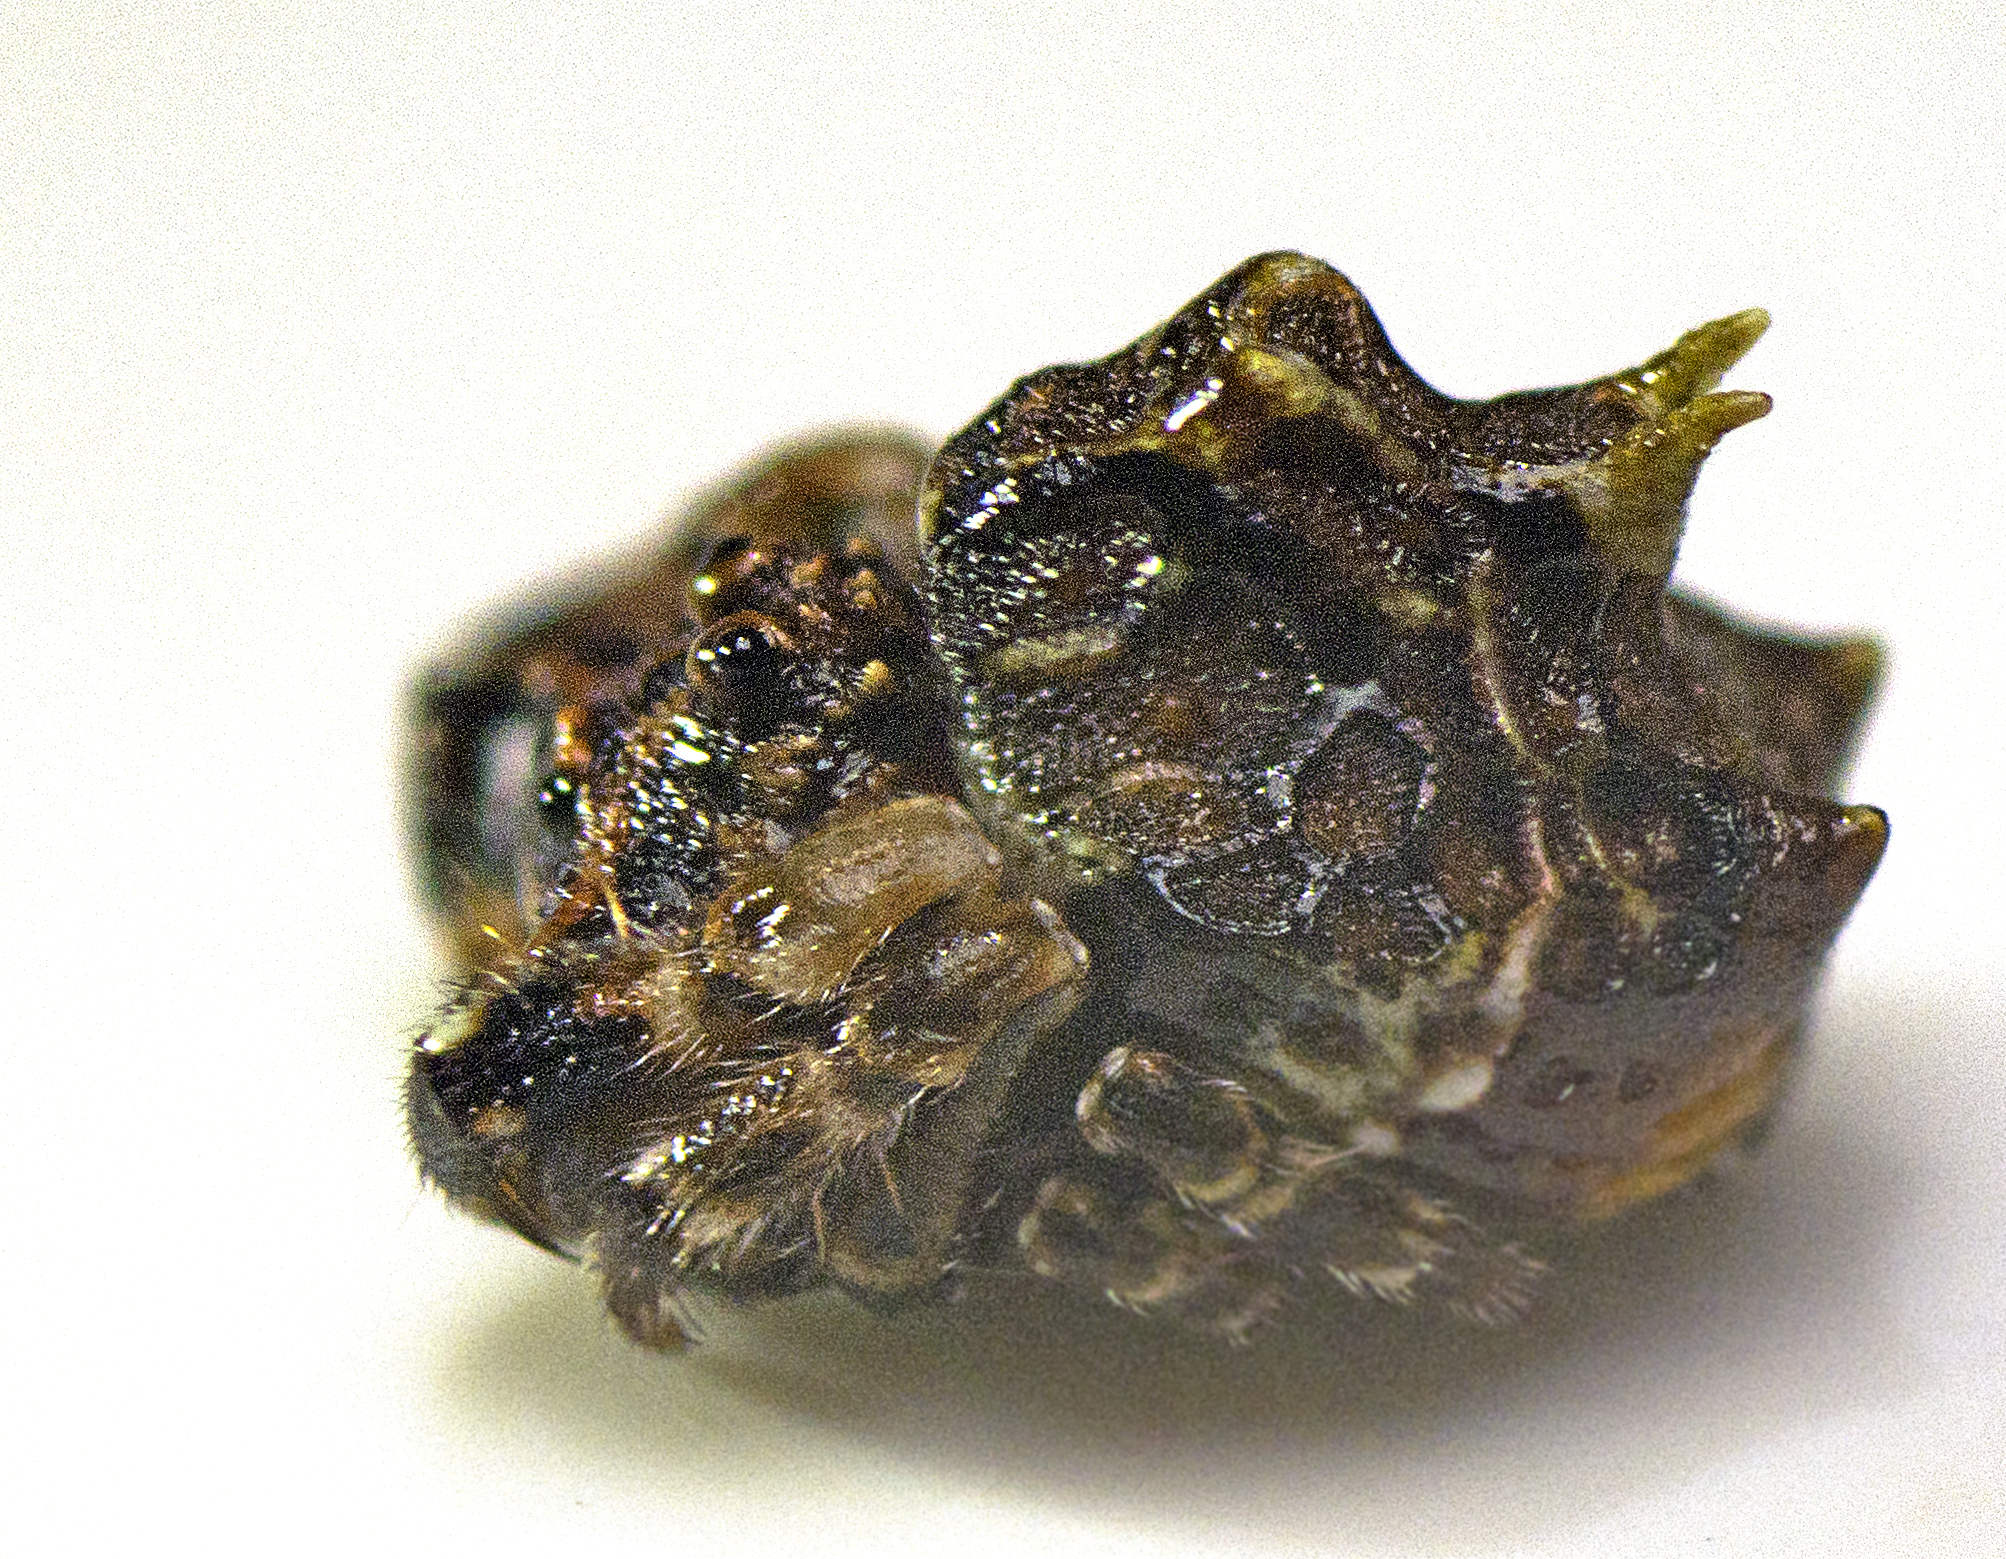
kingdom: Animalia
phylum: Arthropoda
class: Arachnida
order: Araneae
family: Arkyidae
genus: Arkys
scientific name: Arkys tuberculatus
